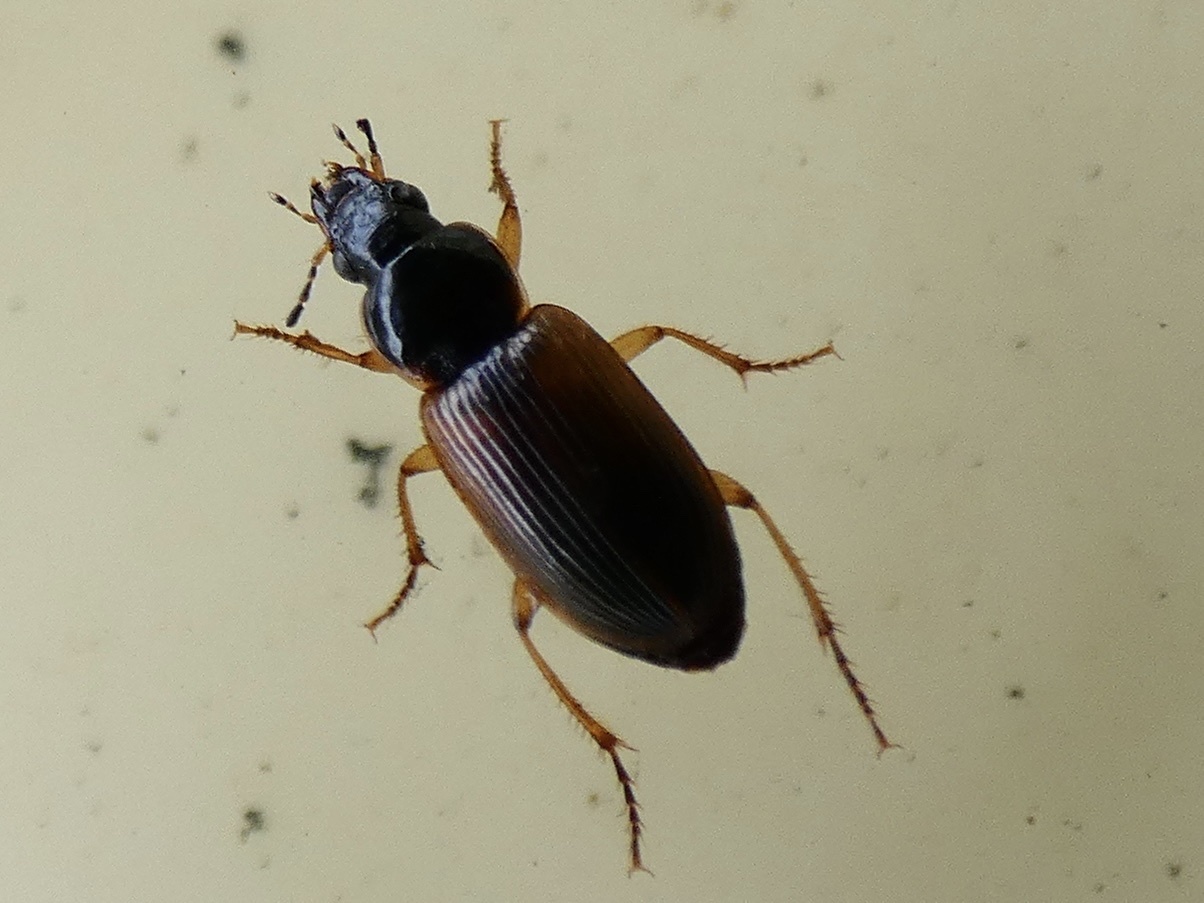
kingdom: Animalia
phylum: Arthropoda
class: Insecta
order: Coleoptera
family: Carabidae
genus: Stenolophus
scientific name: Stenolophus mixtus
